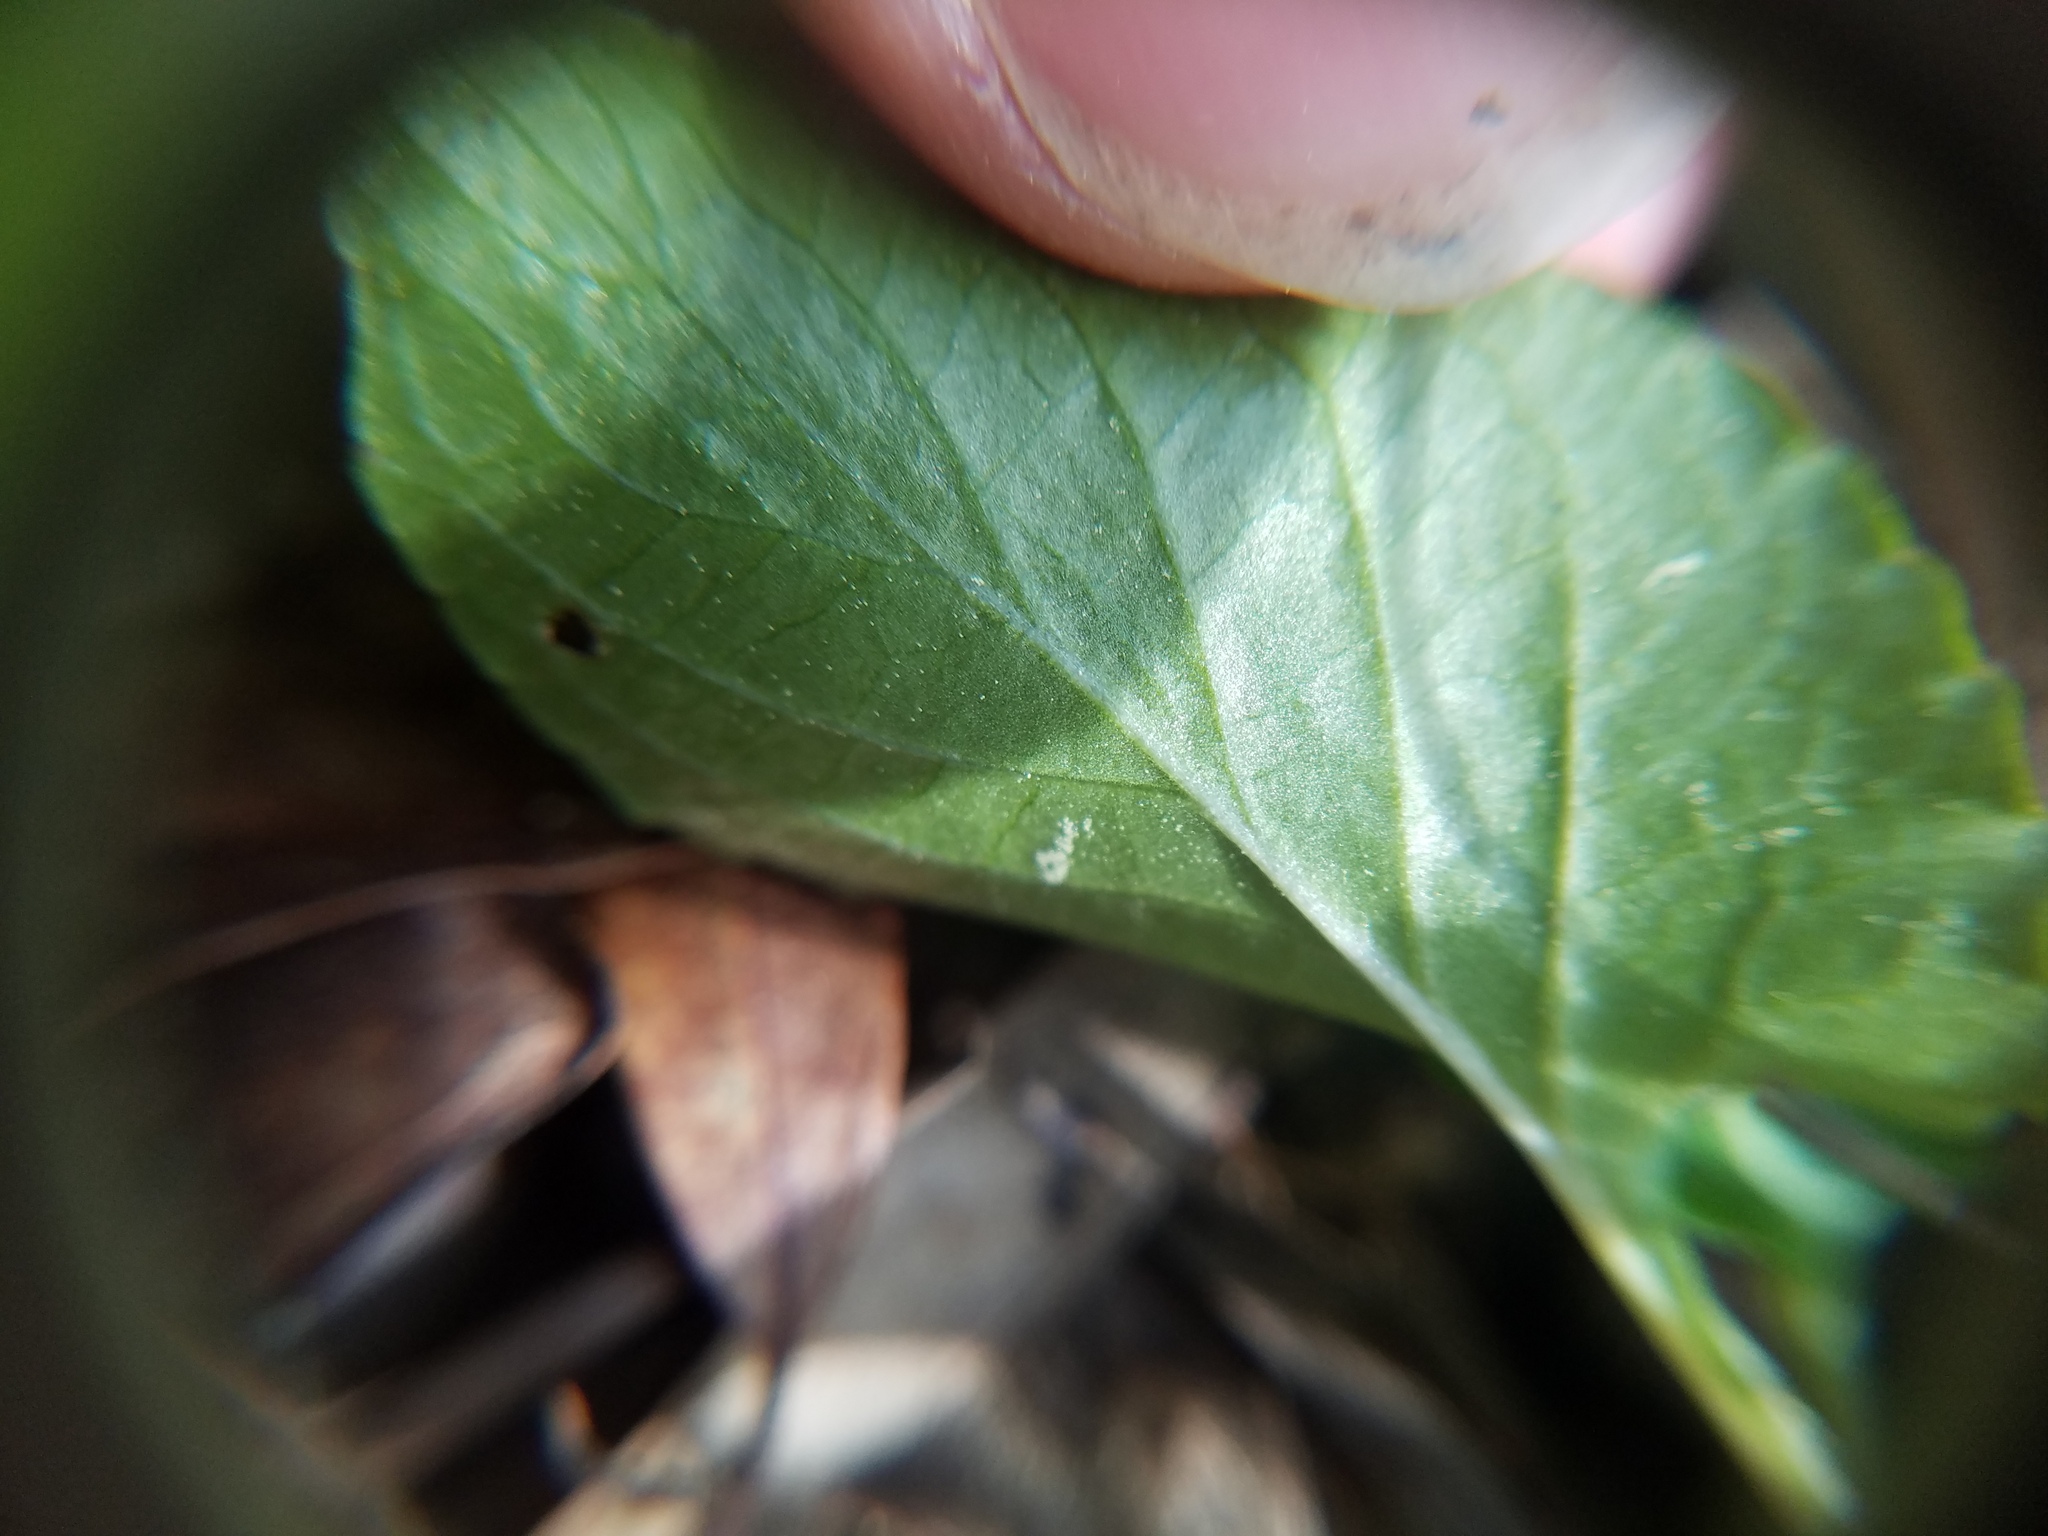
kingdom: Plantae
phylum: Tracheophyta
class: Magnoliopsida
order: Malpighiales
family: Violaceae
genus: Viola
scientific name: Viola primulifolia
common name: Primrose-leaf violet
